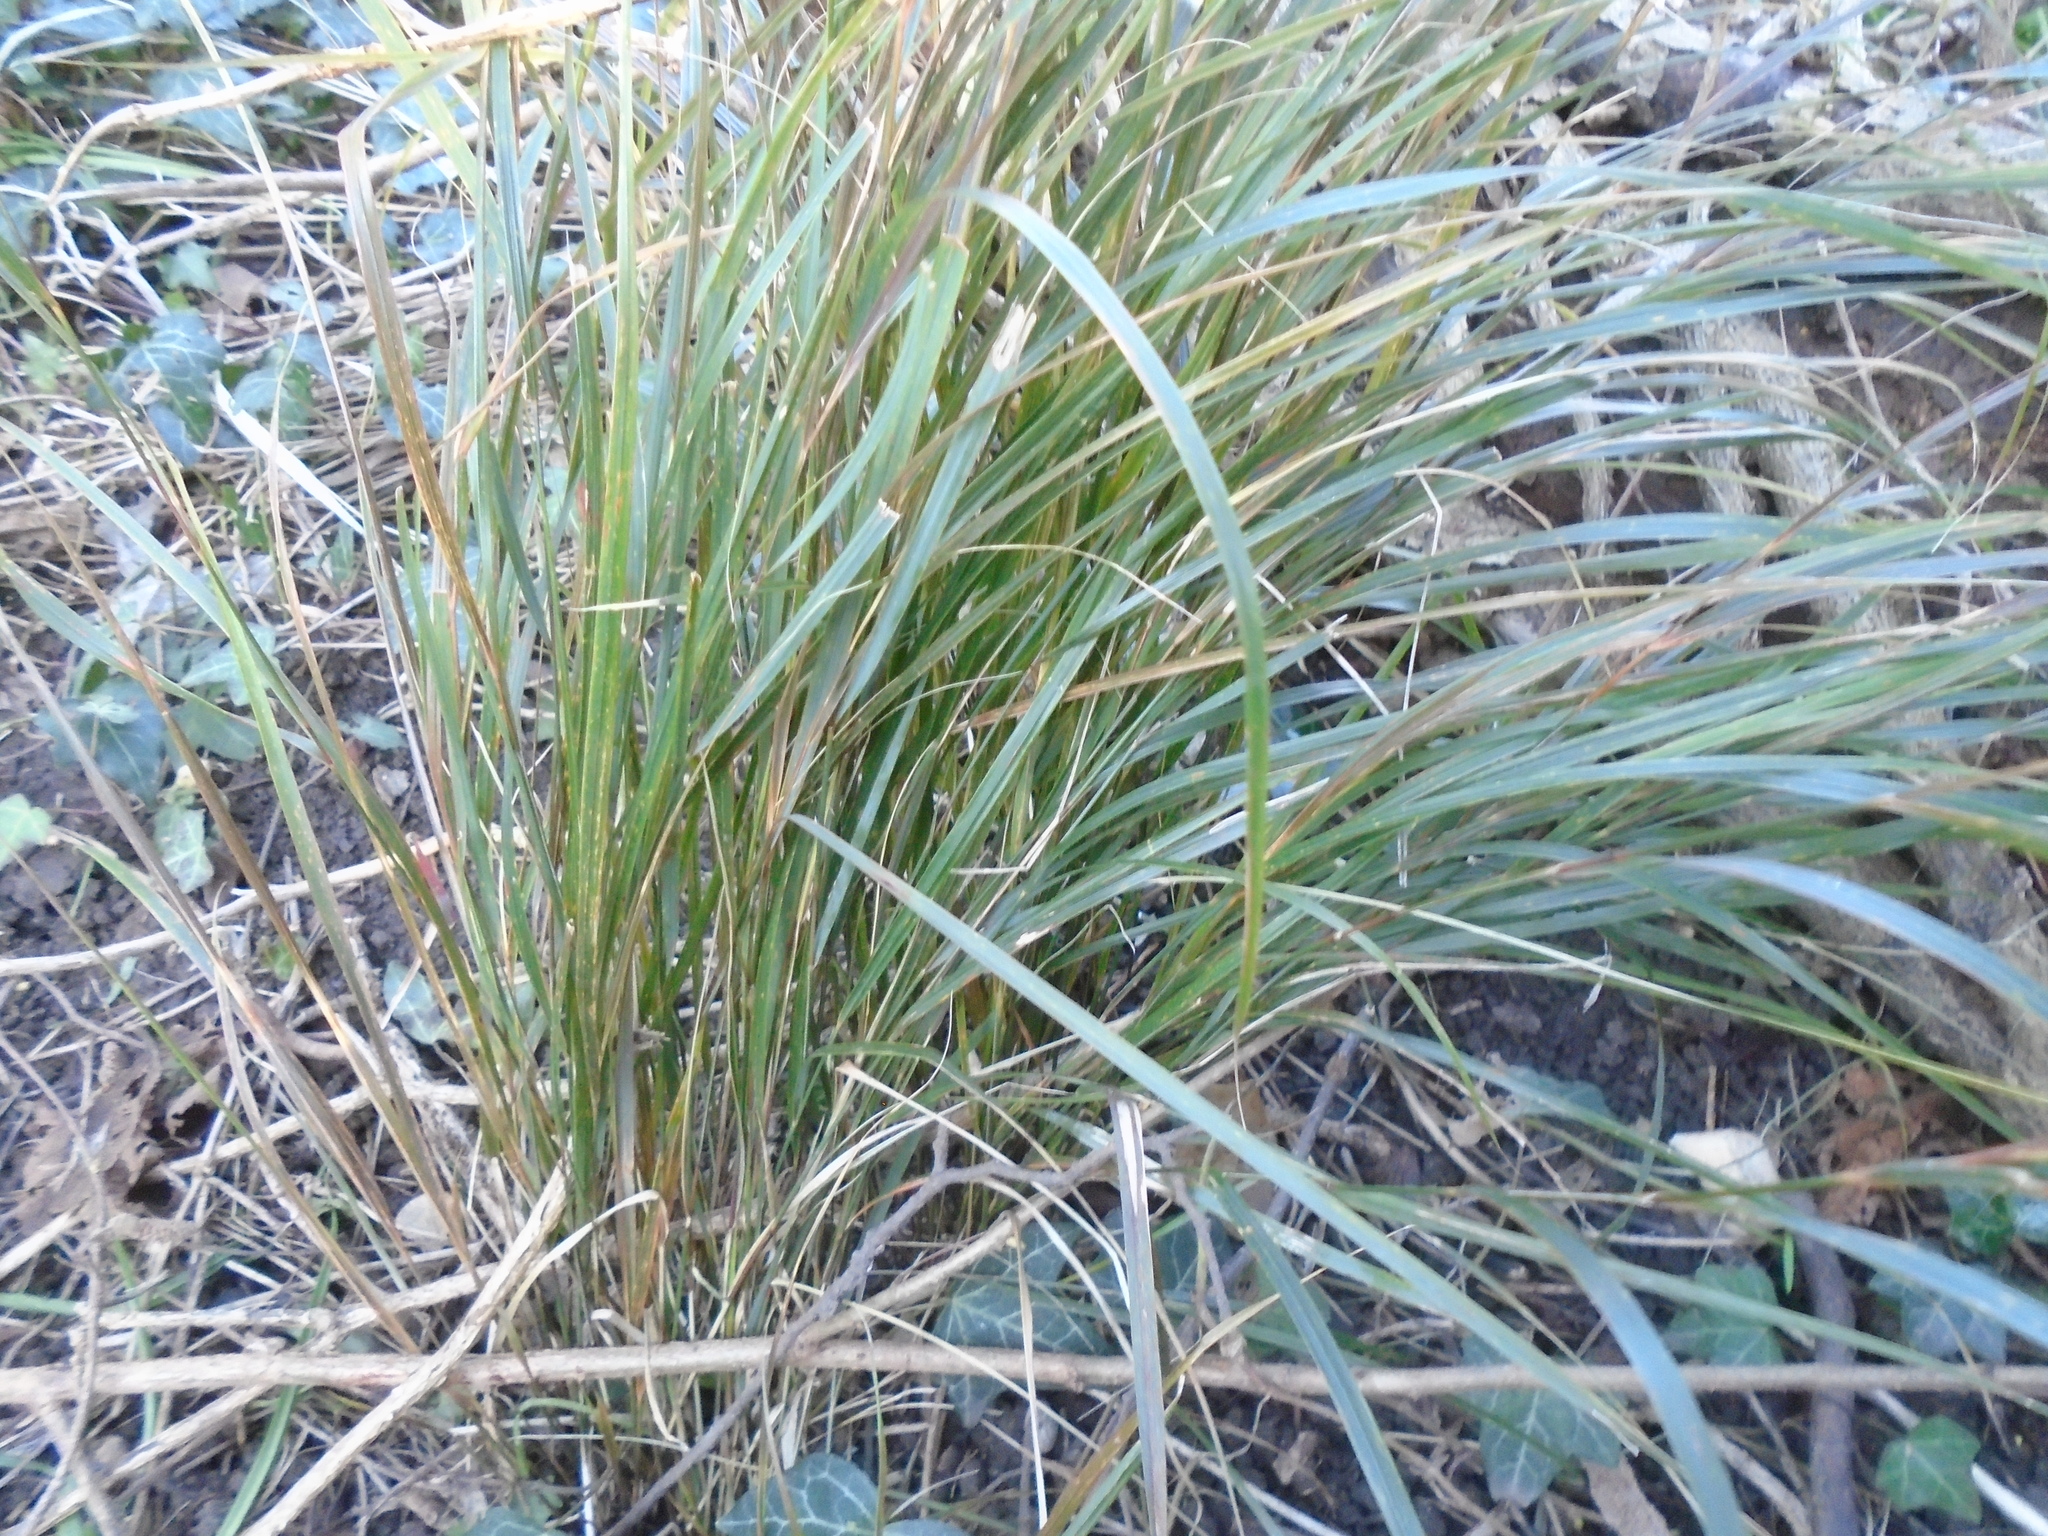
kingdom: Plantae
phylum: Tracheophyta
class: Liliopsida
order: Poales
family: Poaceae
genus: Anemanthele
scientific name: Anemanthele lessoniana
